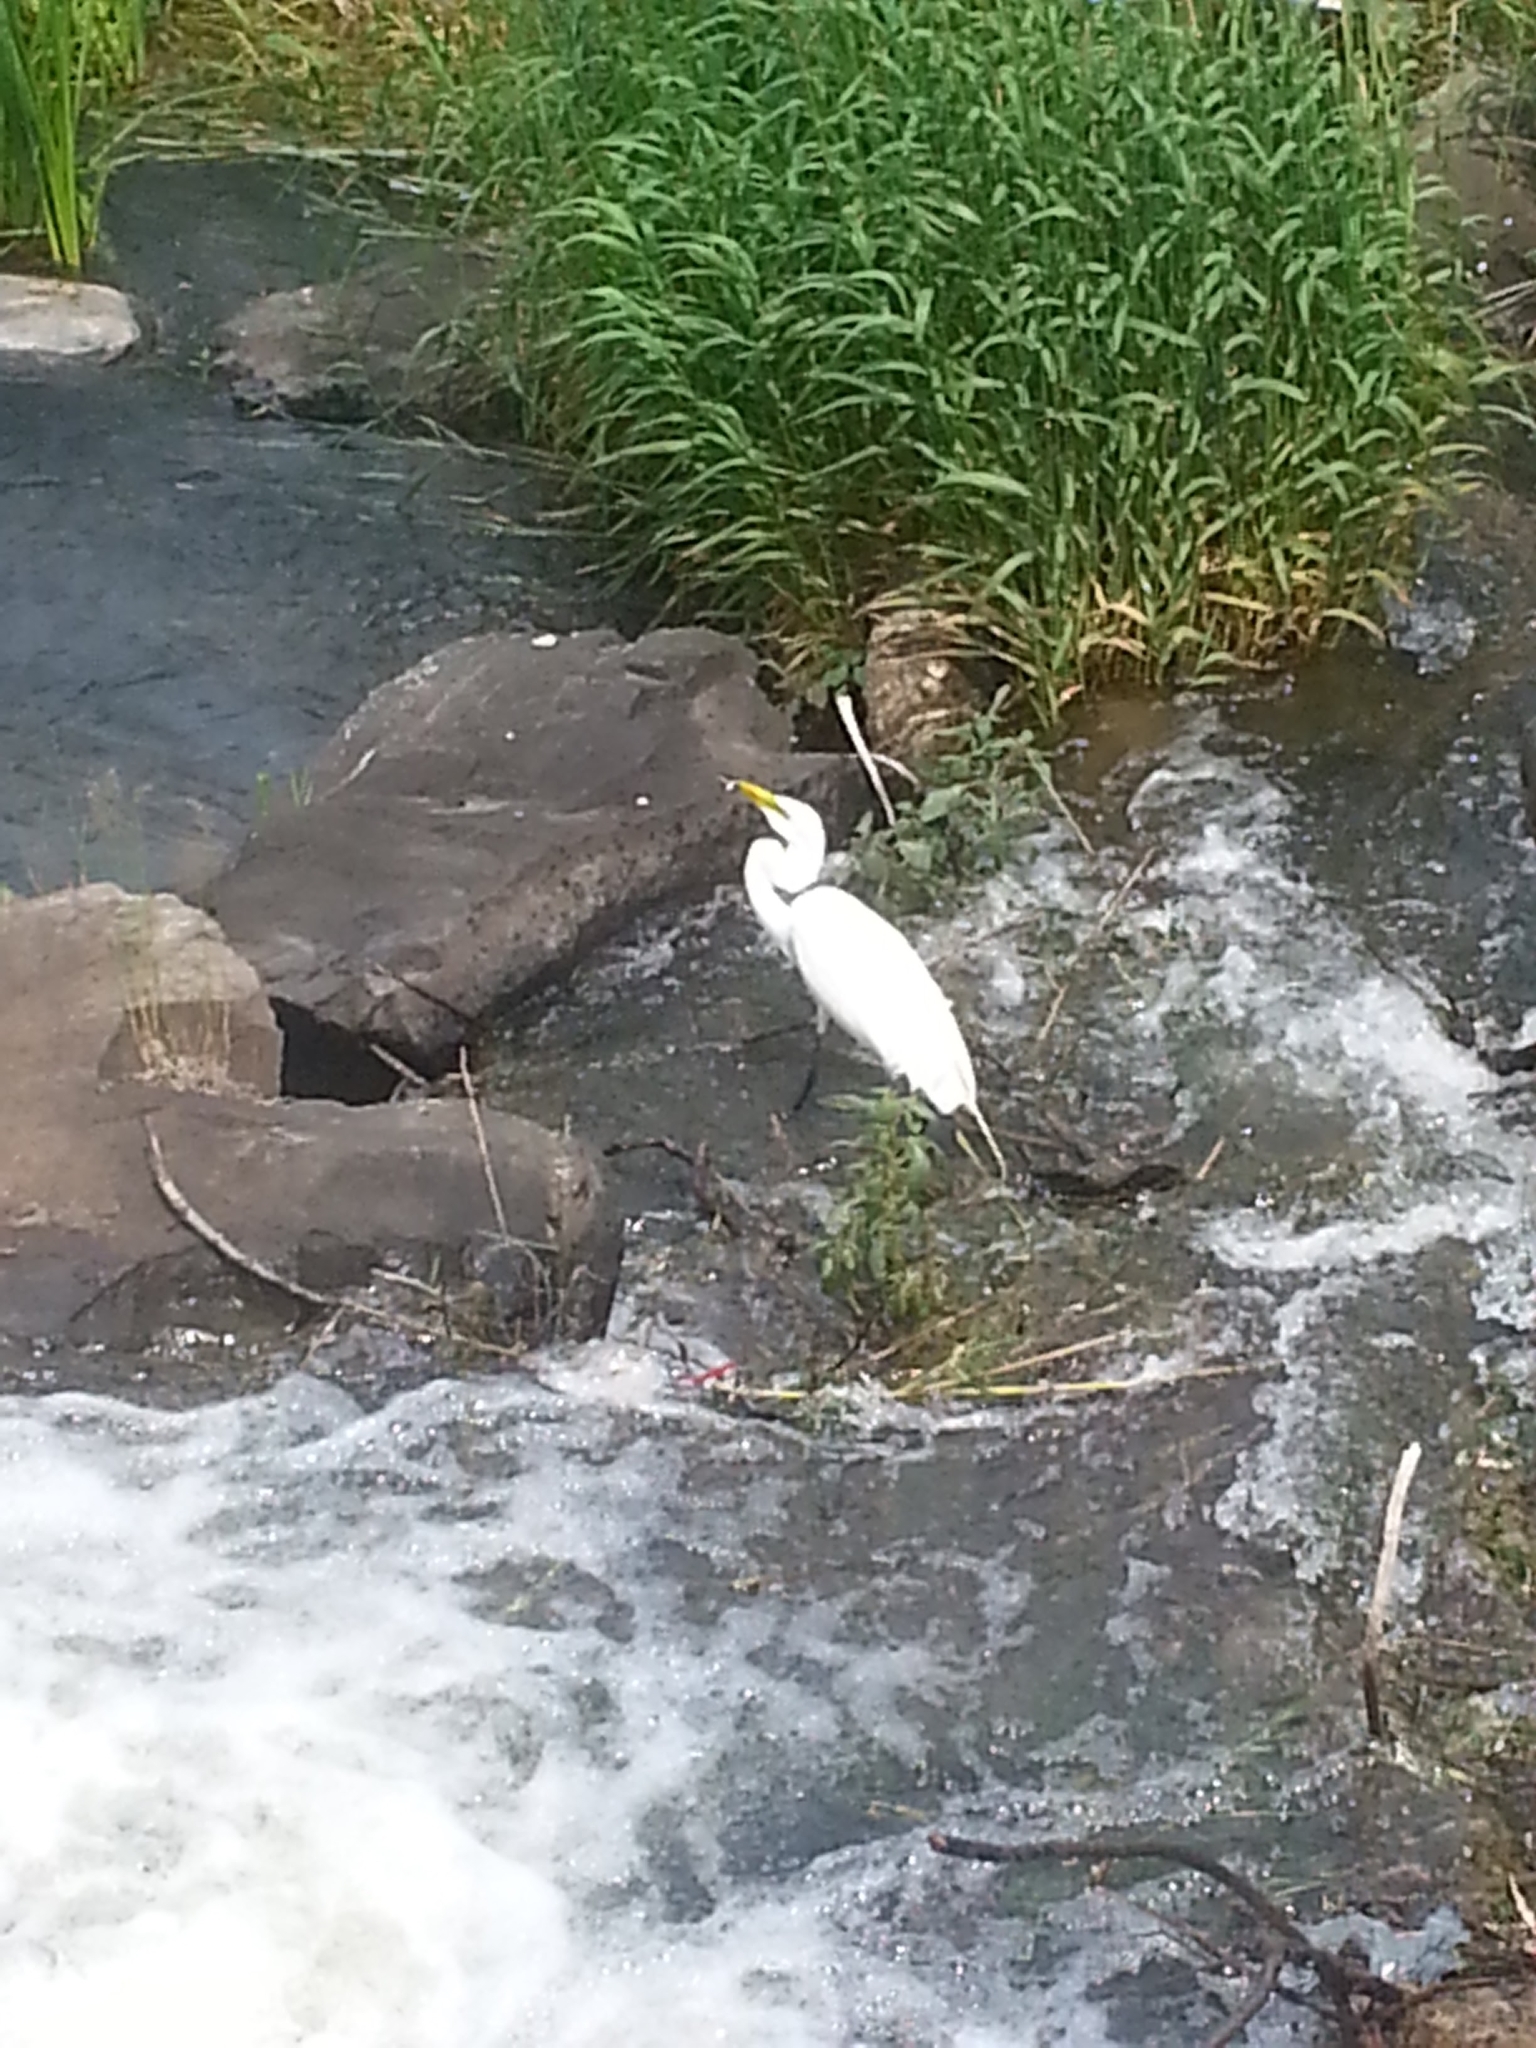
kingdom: Animalia
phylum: Chordata
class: Aves
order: Pelecaniformes
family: Ardeidae
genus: Ardea
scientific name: Ardea alba
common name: Great egret
